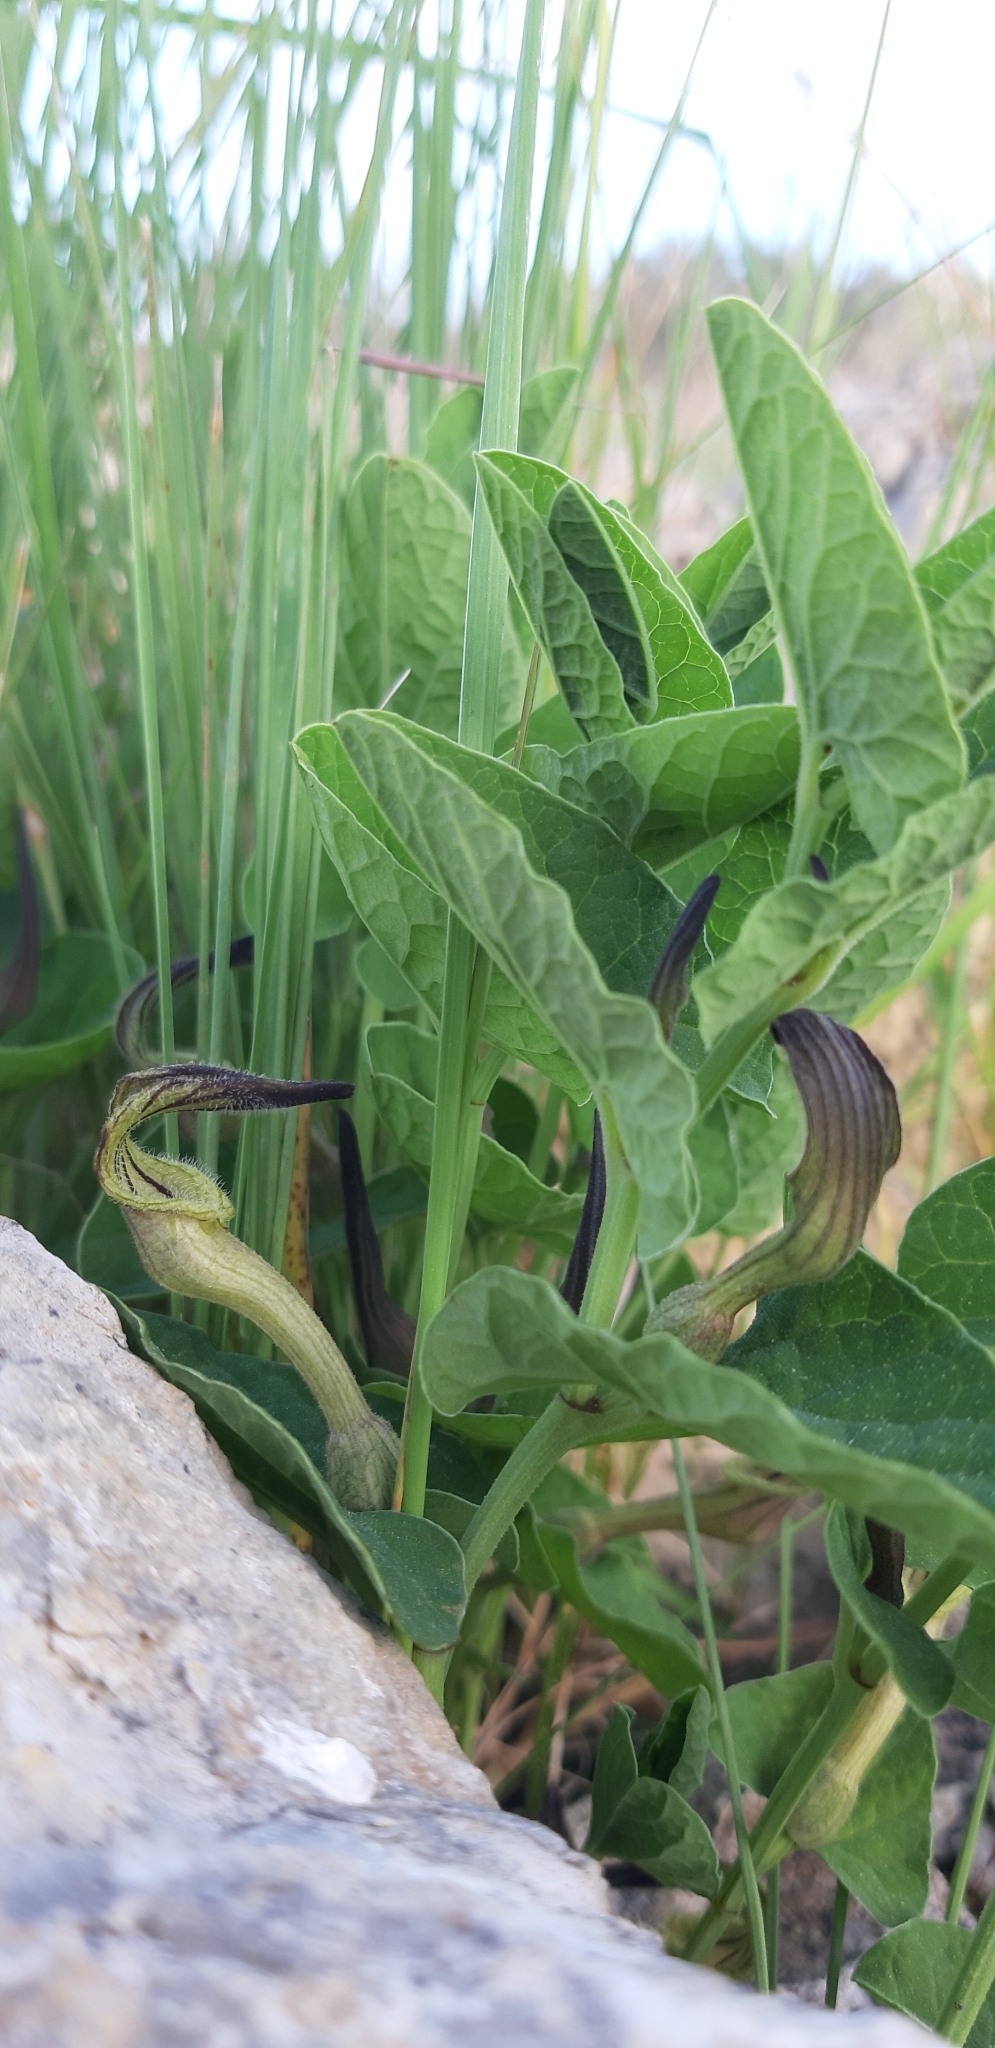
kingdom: Plantae
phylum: Tracheophyta
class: Magnoliopsida
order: Piperales
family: Aristolochiaceae
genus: Aristolochia
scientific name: Aristolochia clusii
